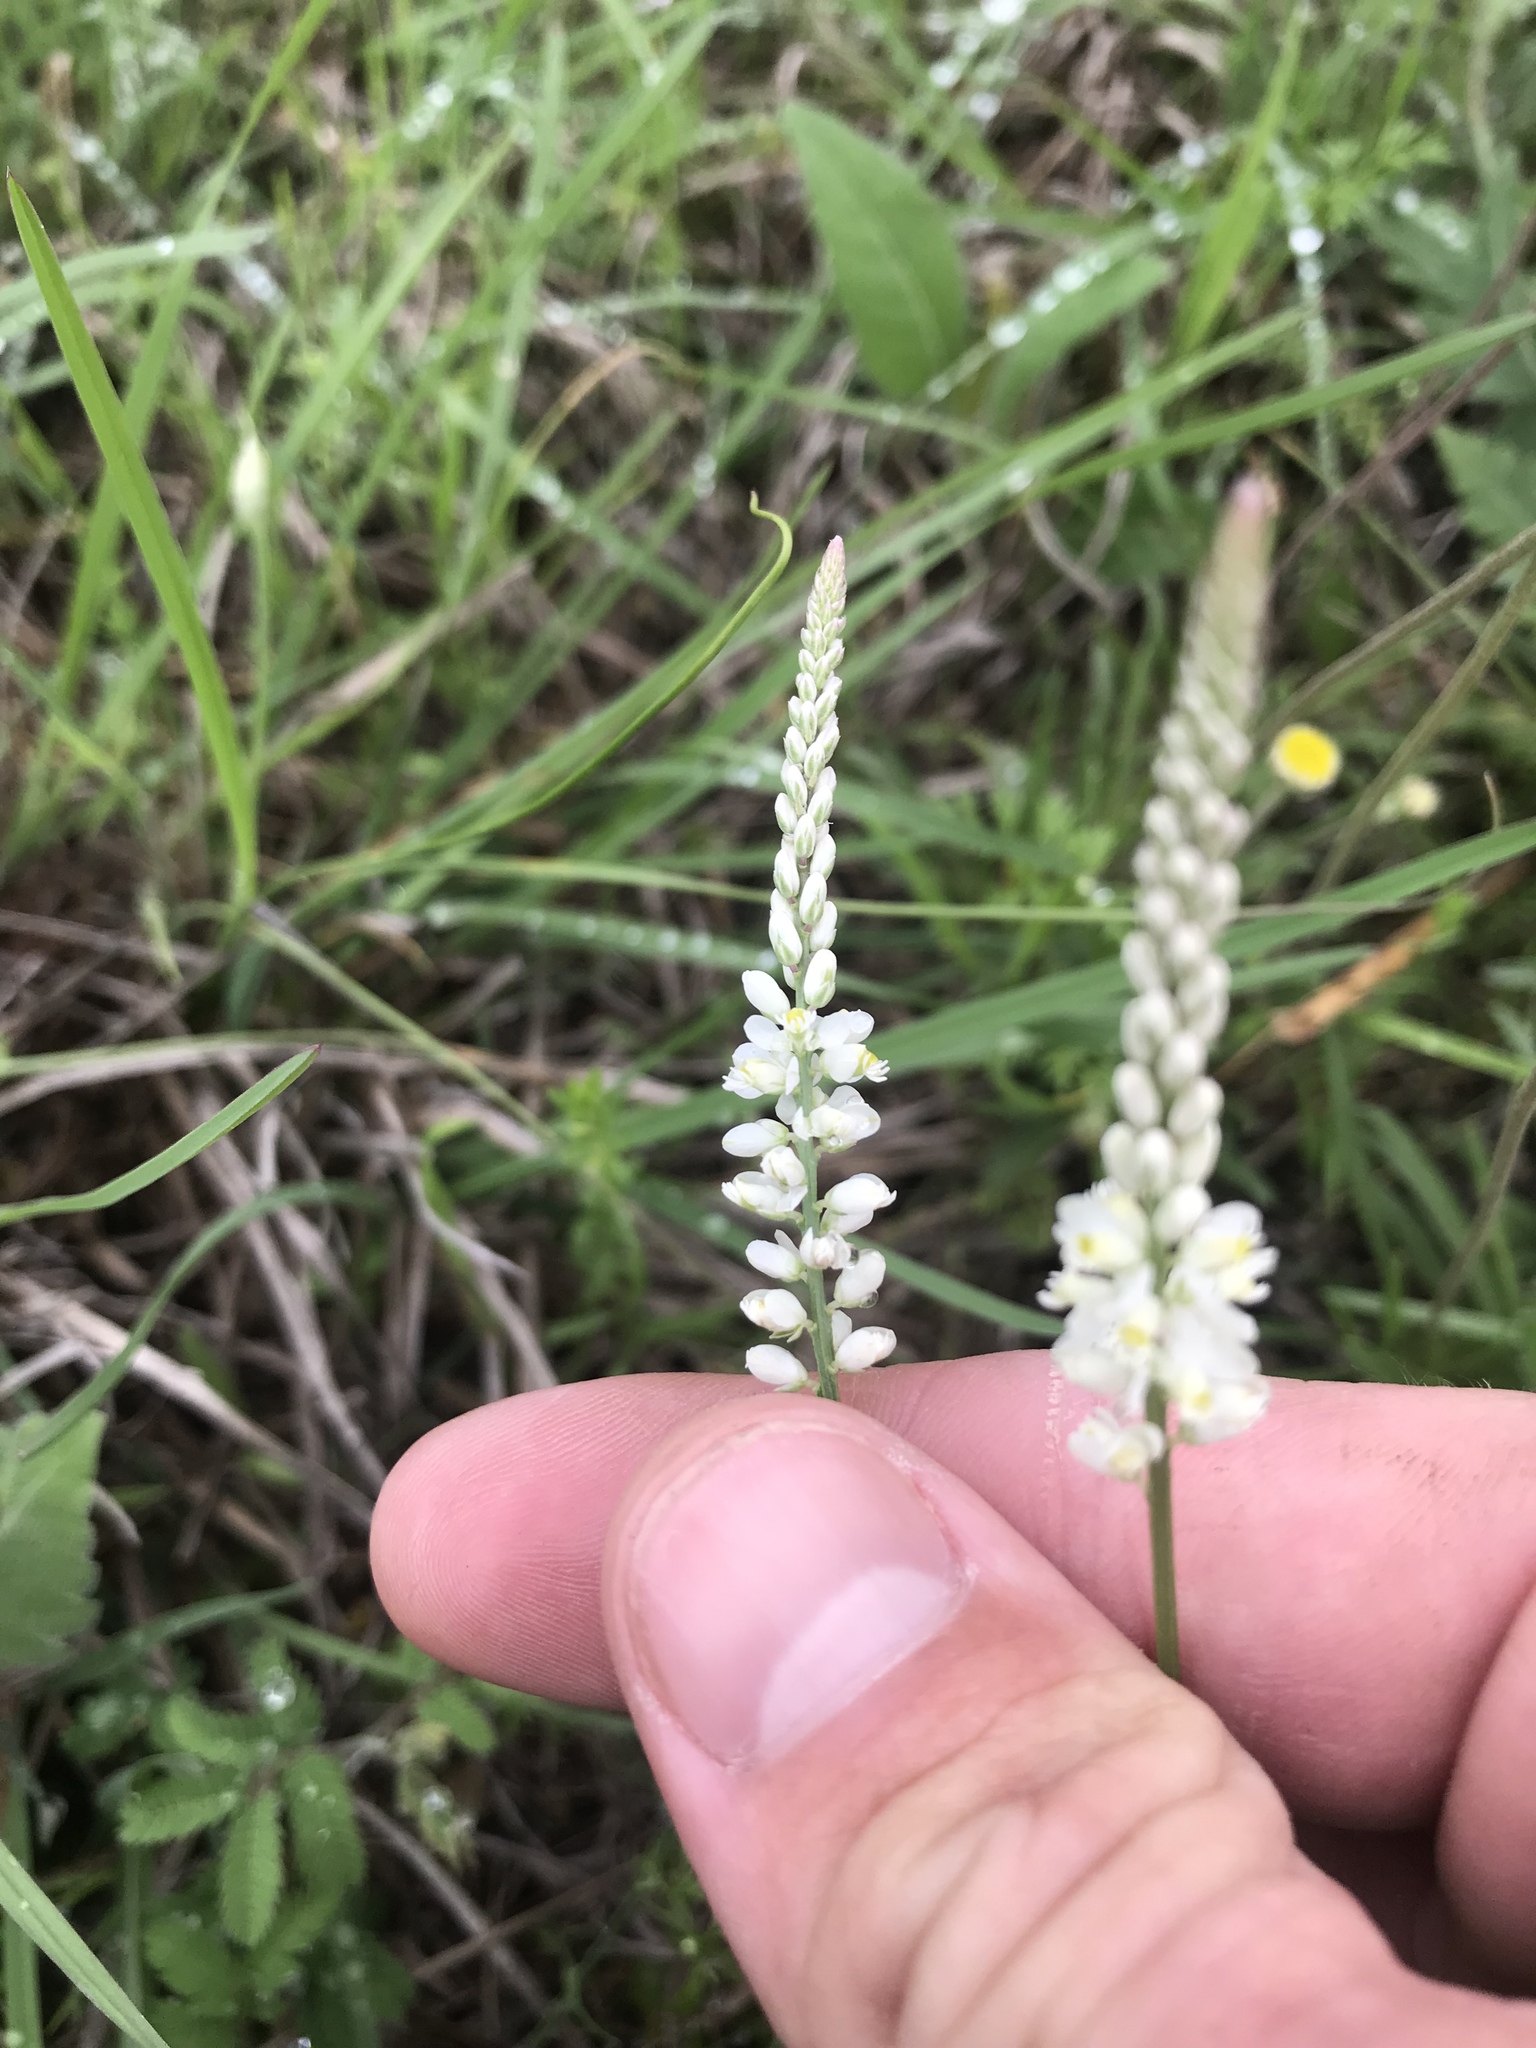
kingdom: Plantae
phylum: Tracheophyta
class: Magnoliopsida
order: Fabales
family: Polygalaceae
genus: Polygala
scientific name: Polygala alba
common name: White milkwort
